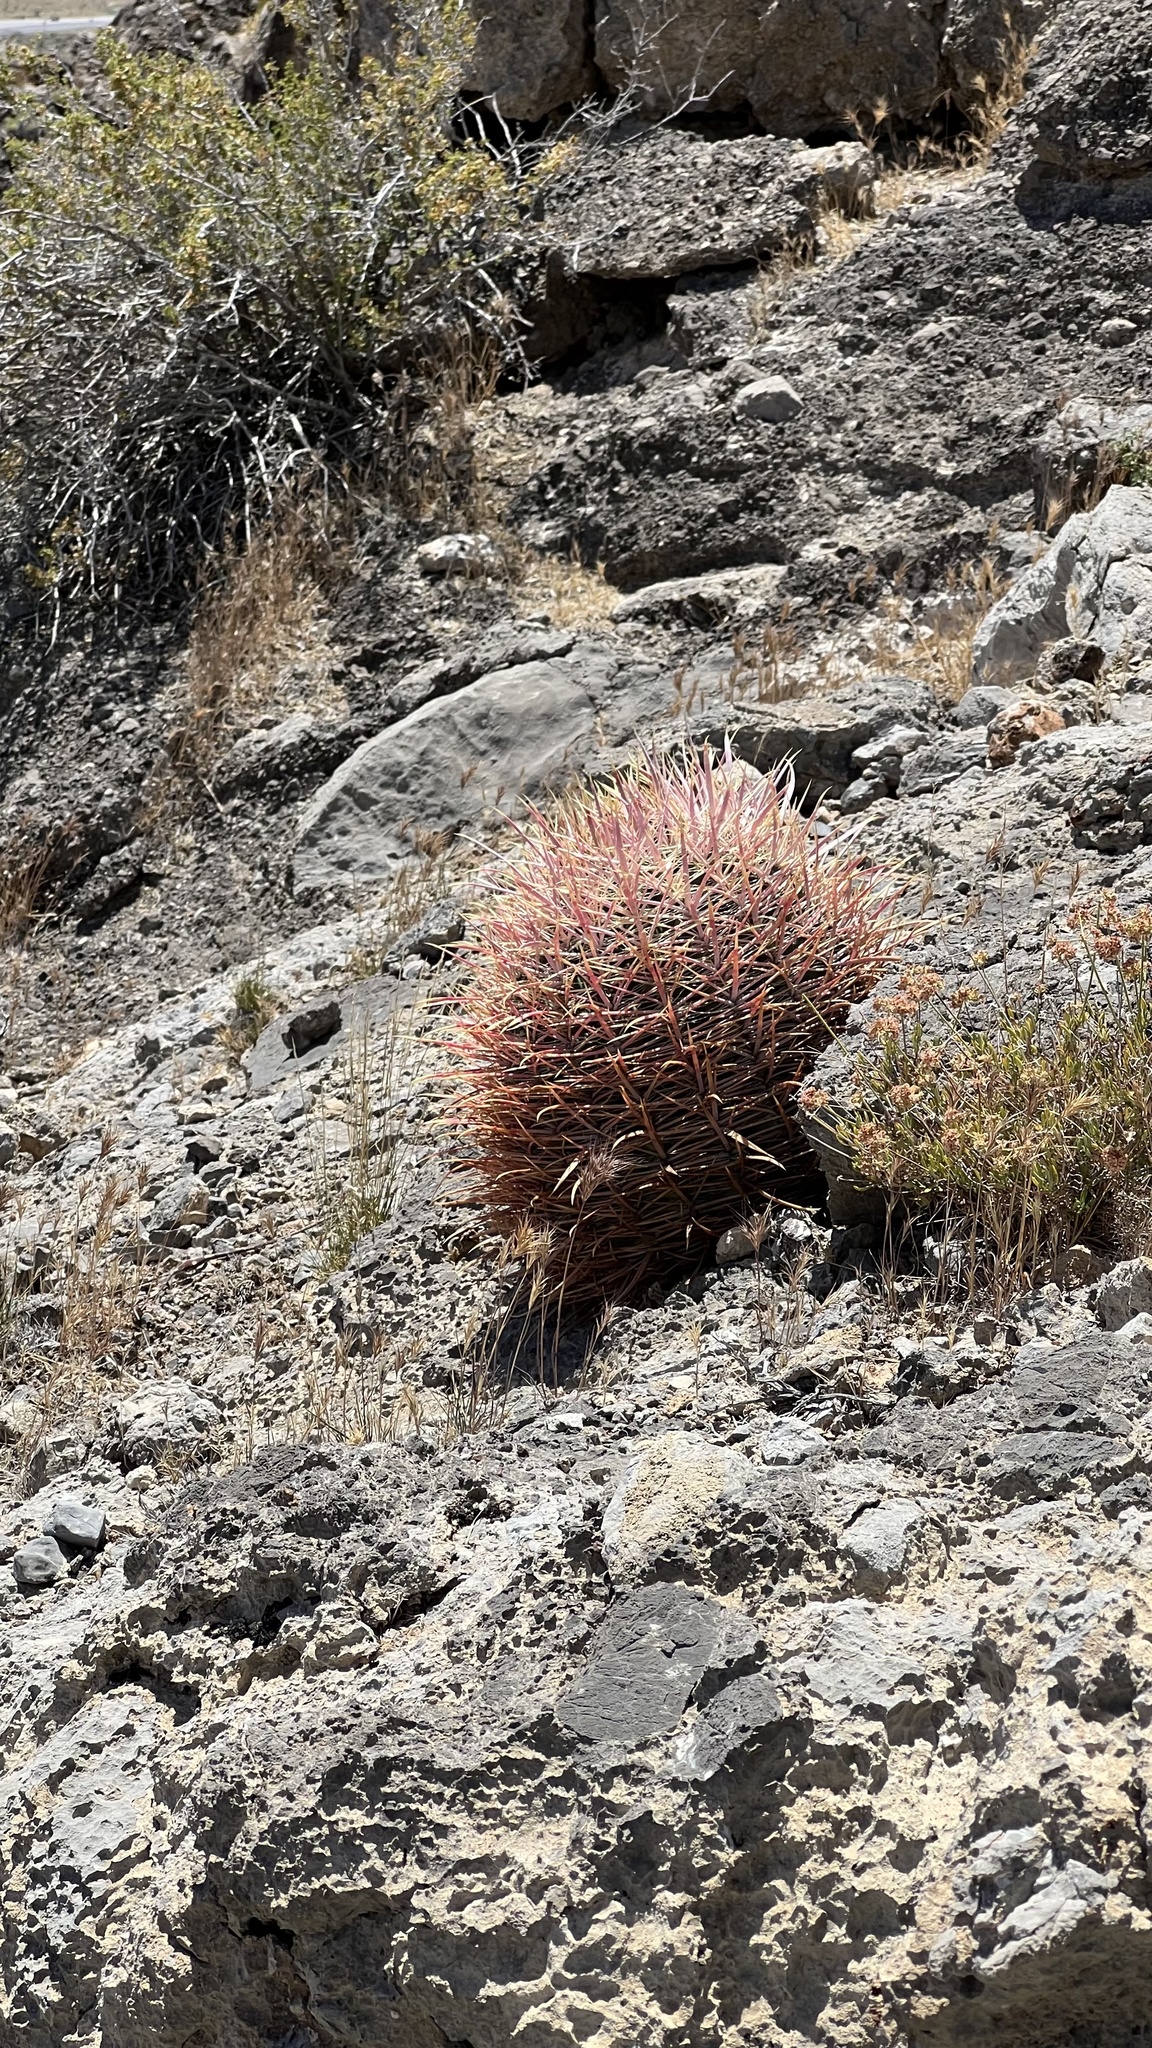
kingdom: Plantae
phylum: Tracheophyta
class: Magnoliopsida
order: Caryophyllales
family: Cactaceae
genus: Ferocactus
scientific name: Ferocactus cylindraceus
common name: California barrel cactus
